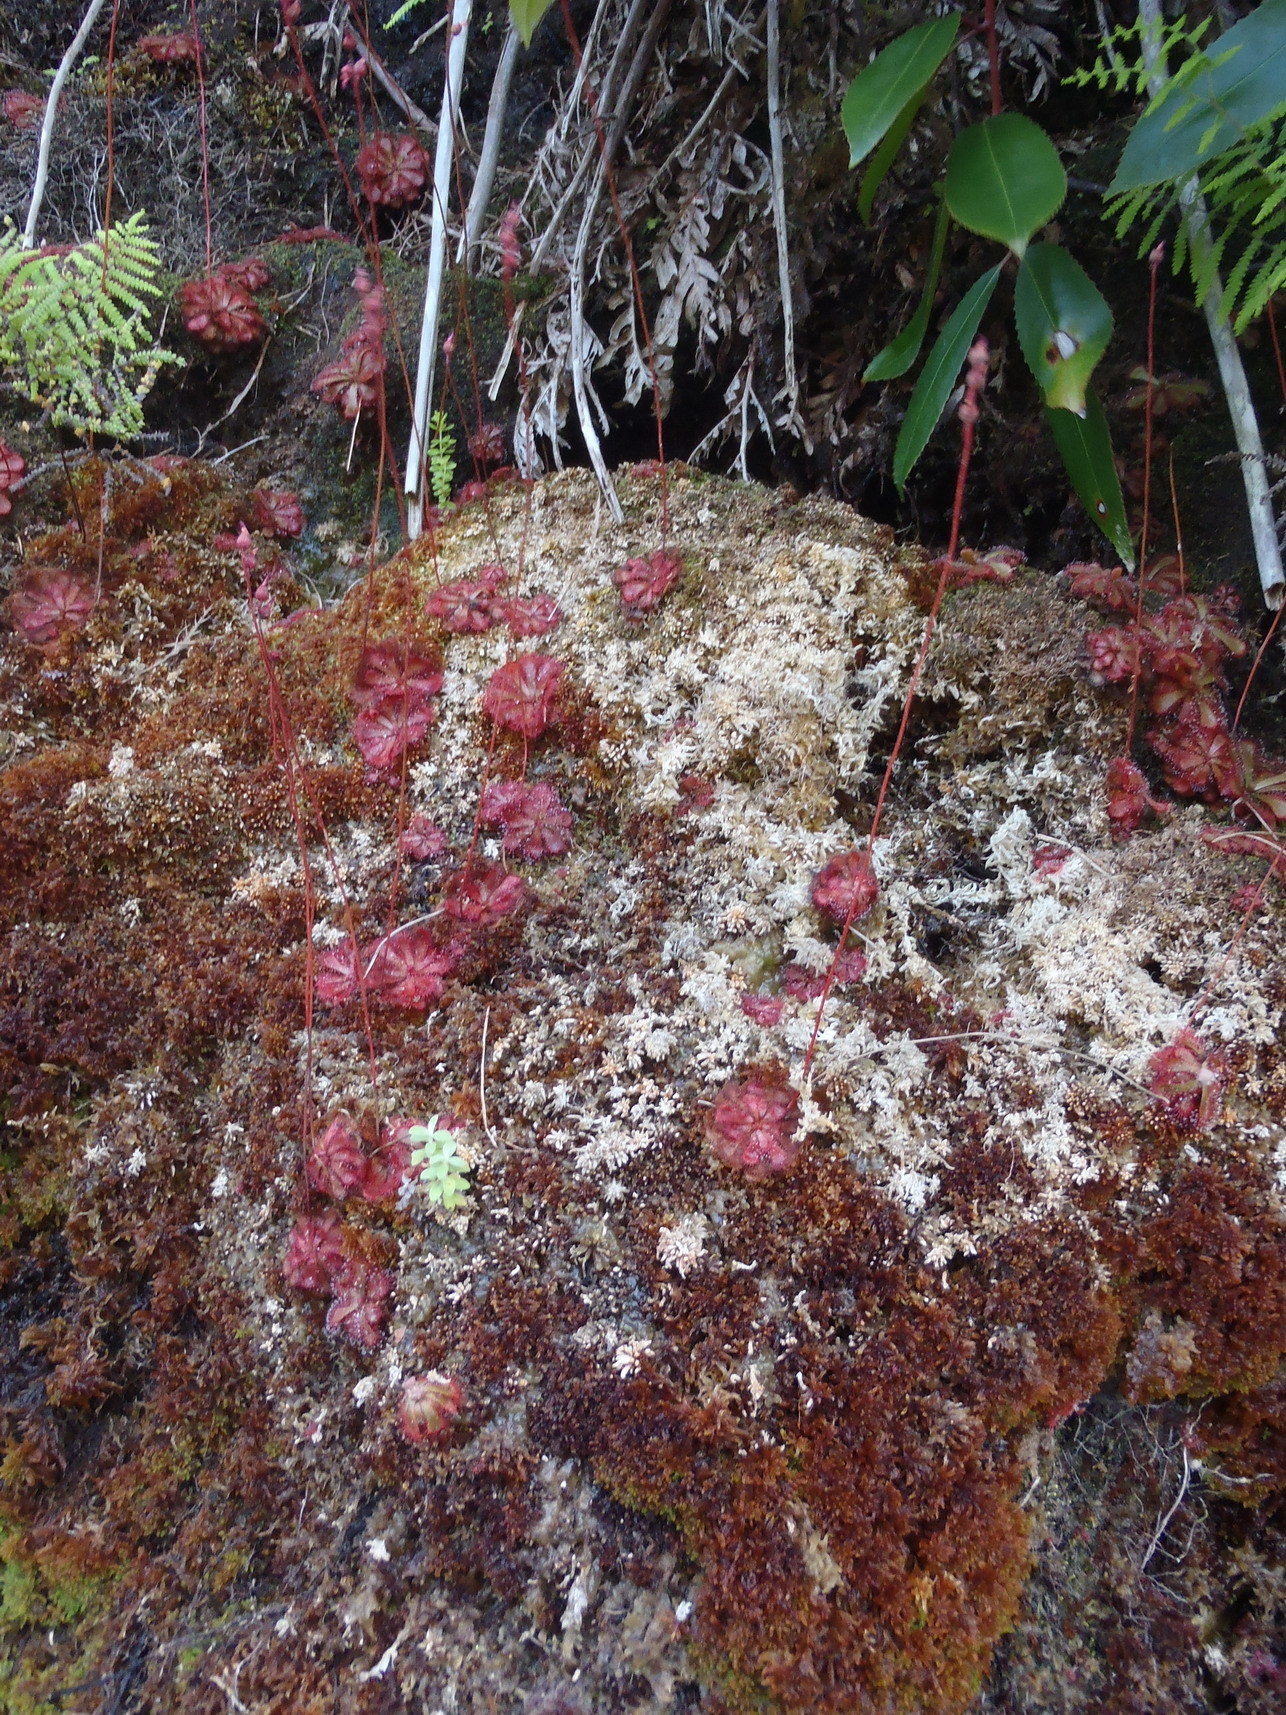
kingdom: Plantae
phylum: Tracheophyta
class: Magnoliopsida
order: Caryophyllales
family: Droseraceae
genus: Drosera
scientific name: Drosera aliciae
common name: Alice sundew
